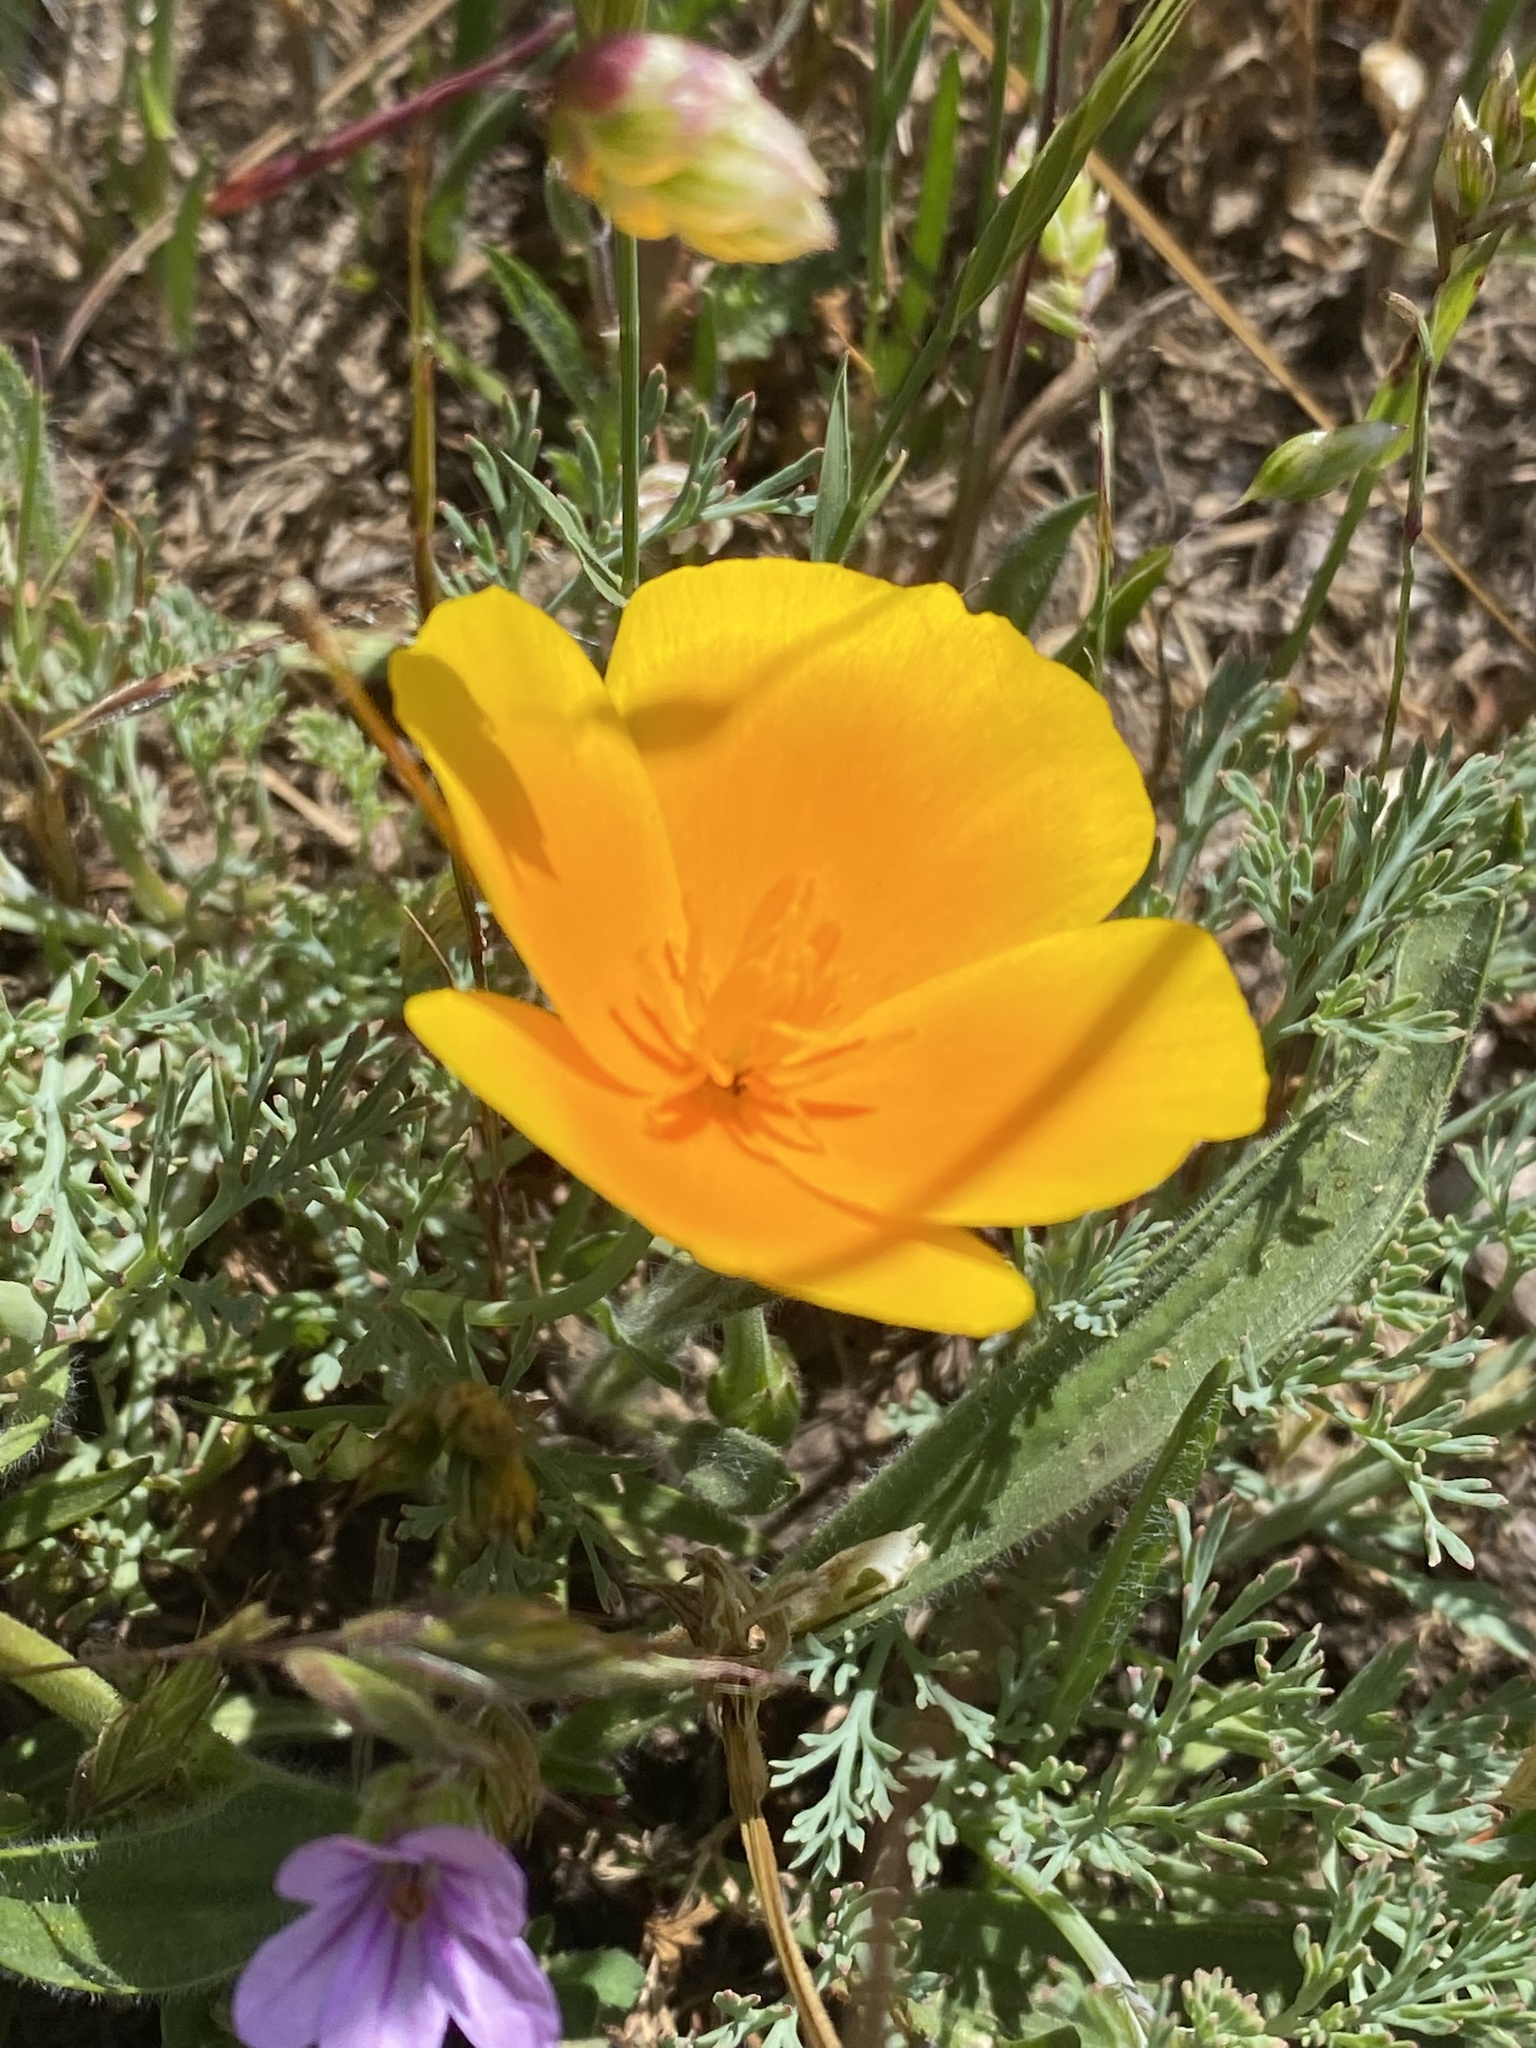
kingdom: Plantae
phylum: Tracheophyta
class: Magnoliopsida
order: Ranunculales
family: Papaveraceae
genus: Eschscholzia
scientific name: Eschscholzia californica
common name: California poppy
